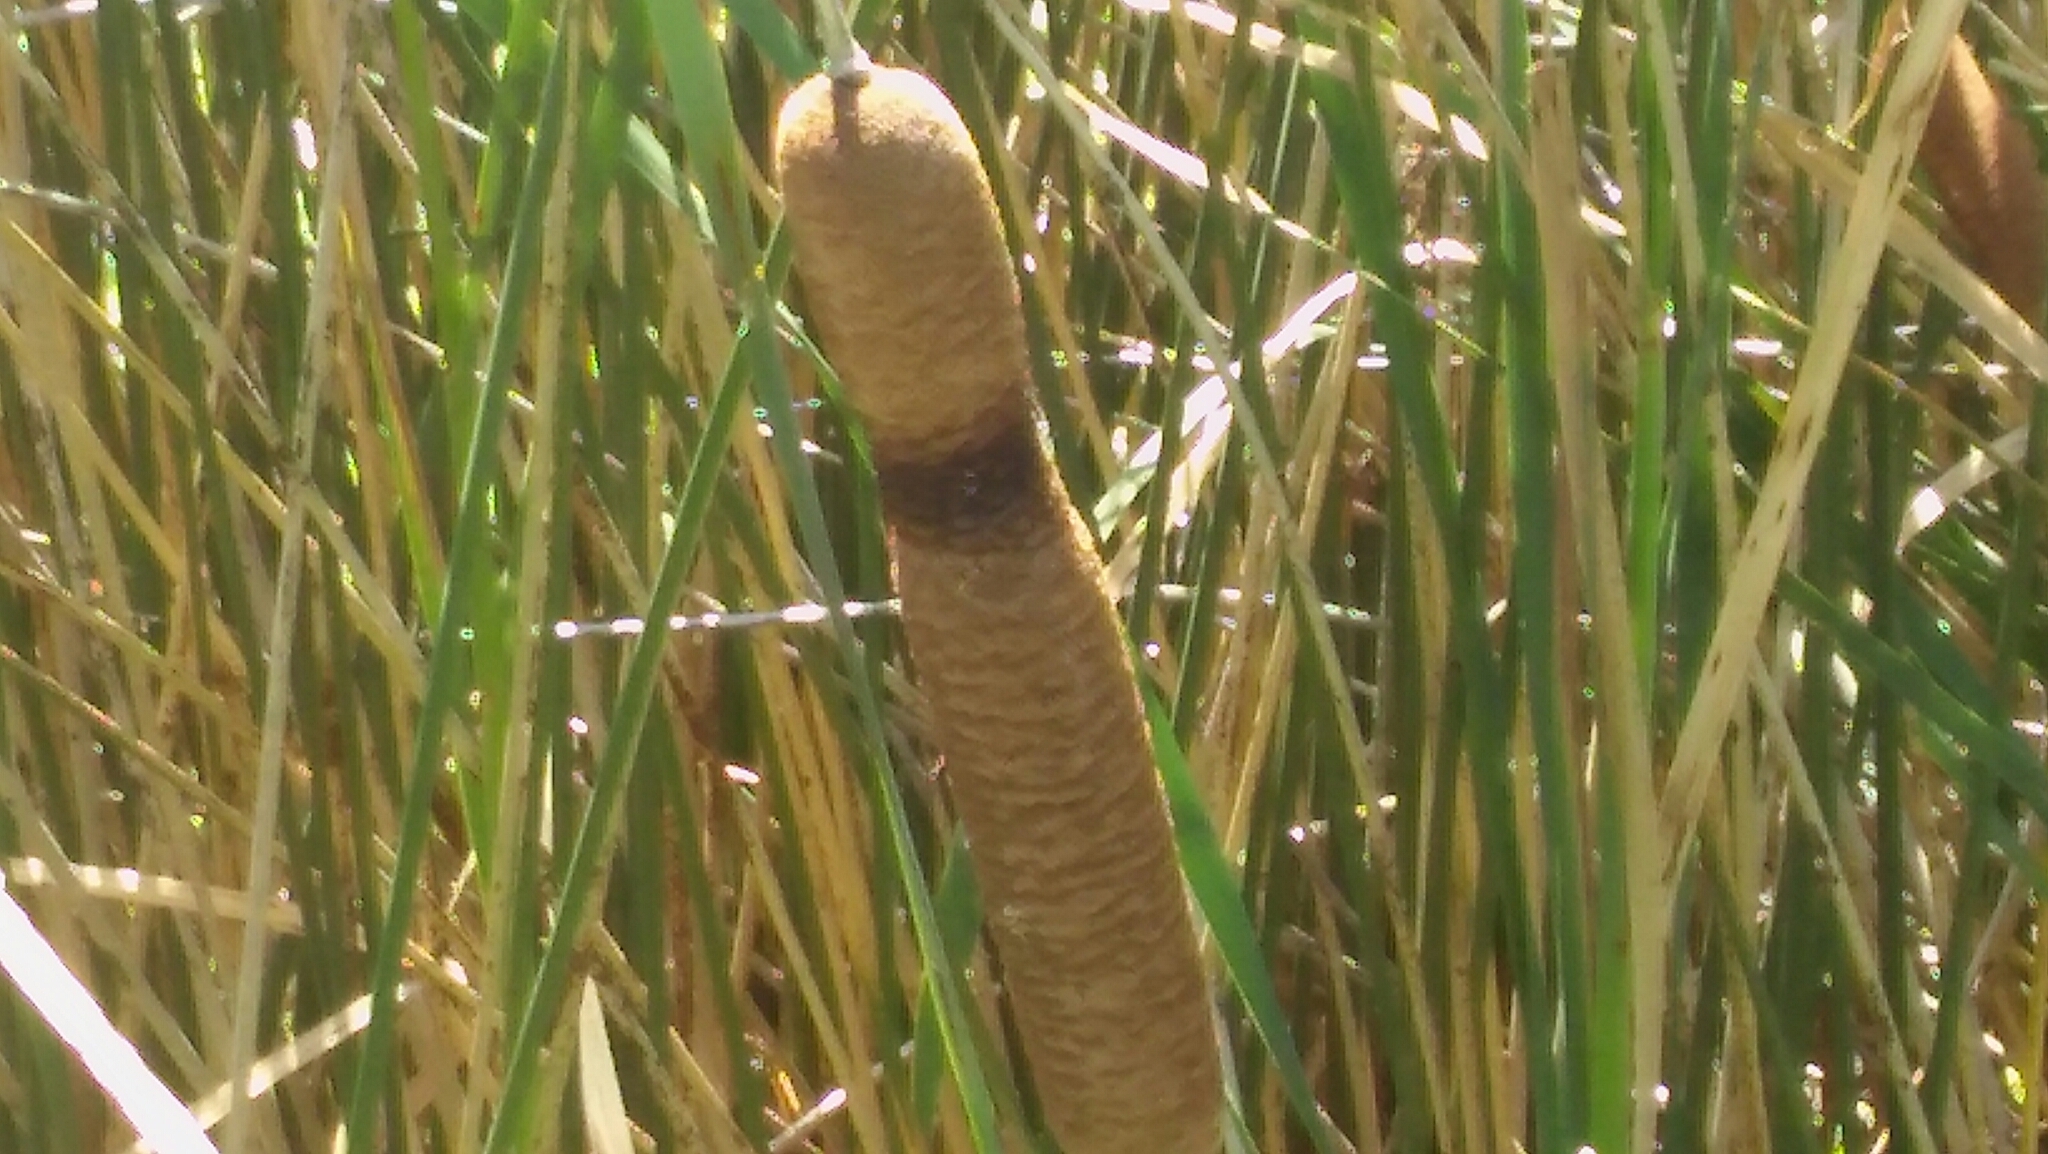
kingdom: Plantae
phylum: Tracheophyta
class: Liliopsida
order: Poales
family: Typhaceae
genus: Typha
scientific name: Typha latifolia
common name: Broadleaf cattail
